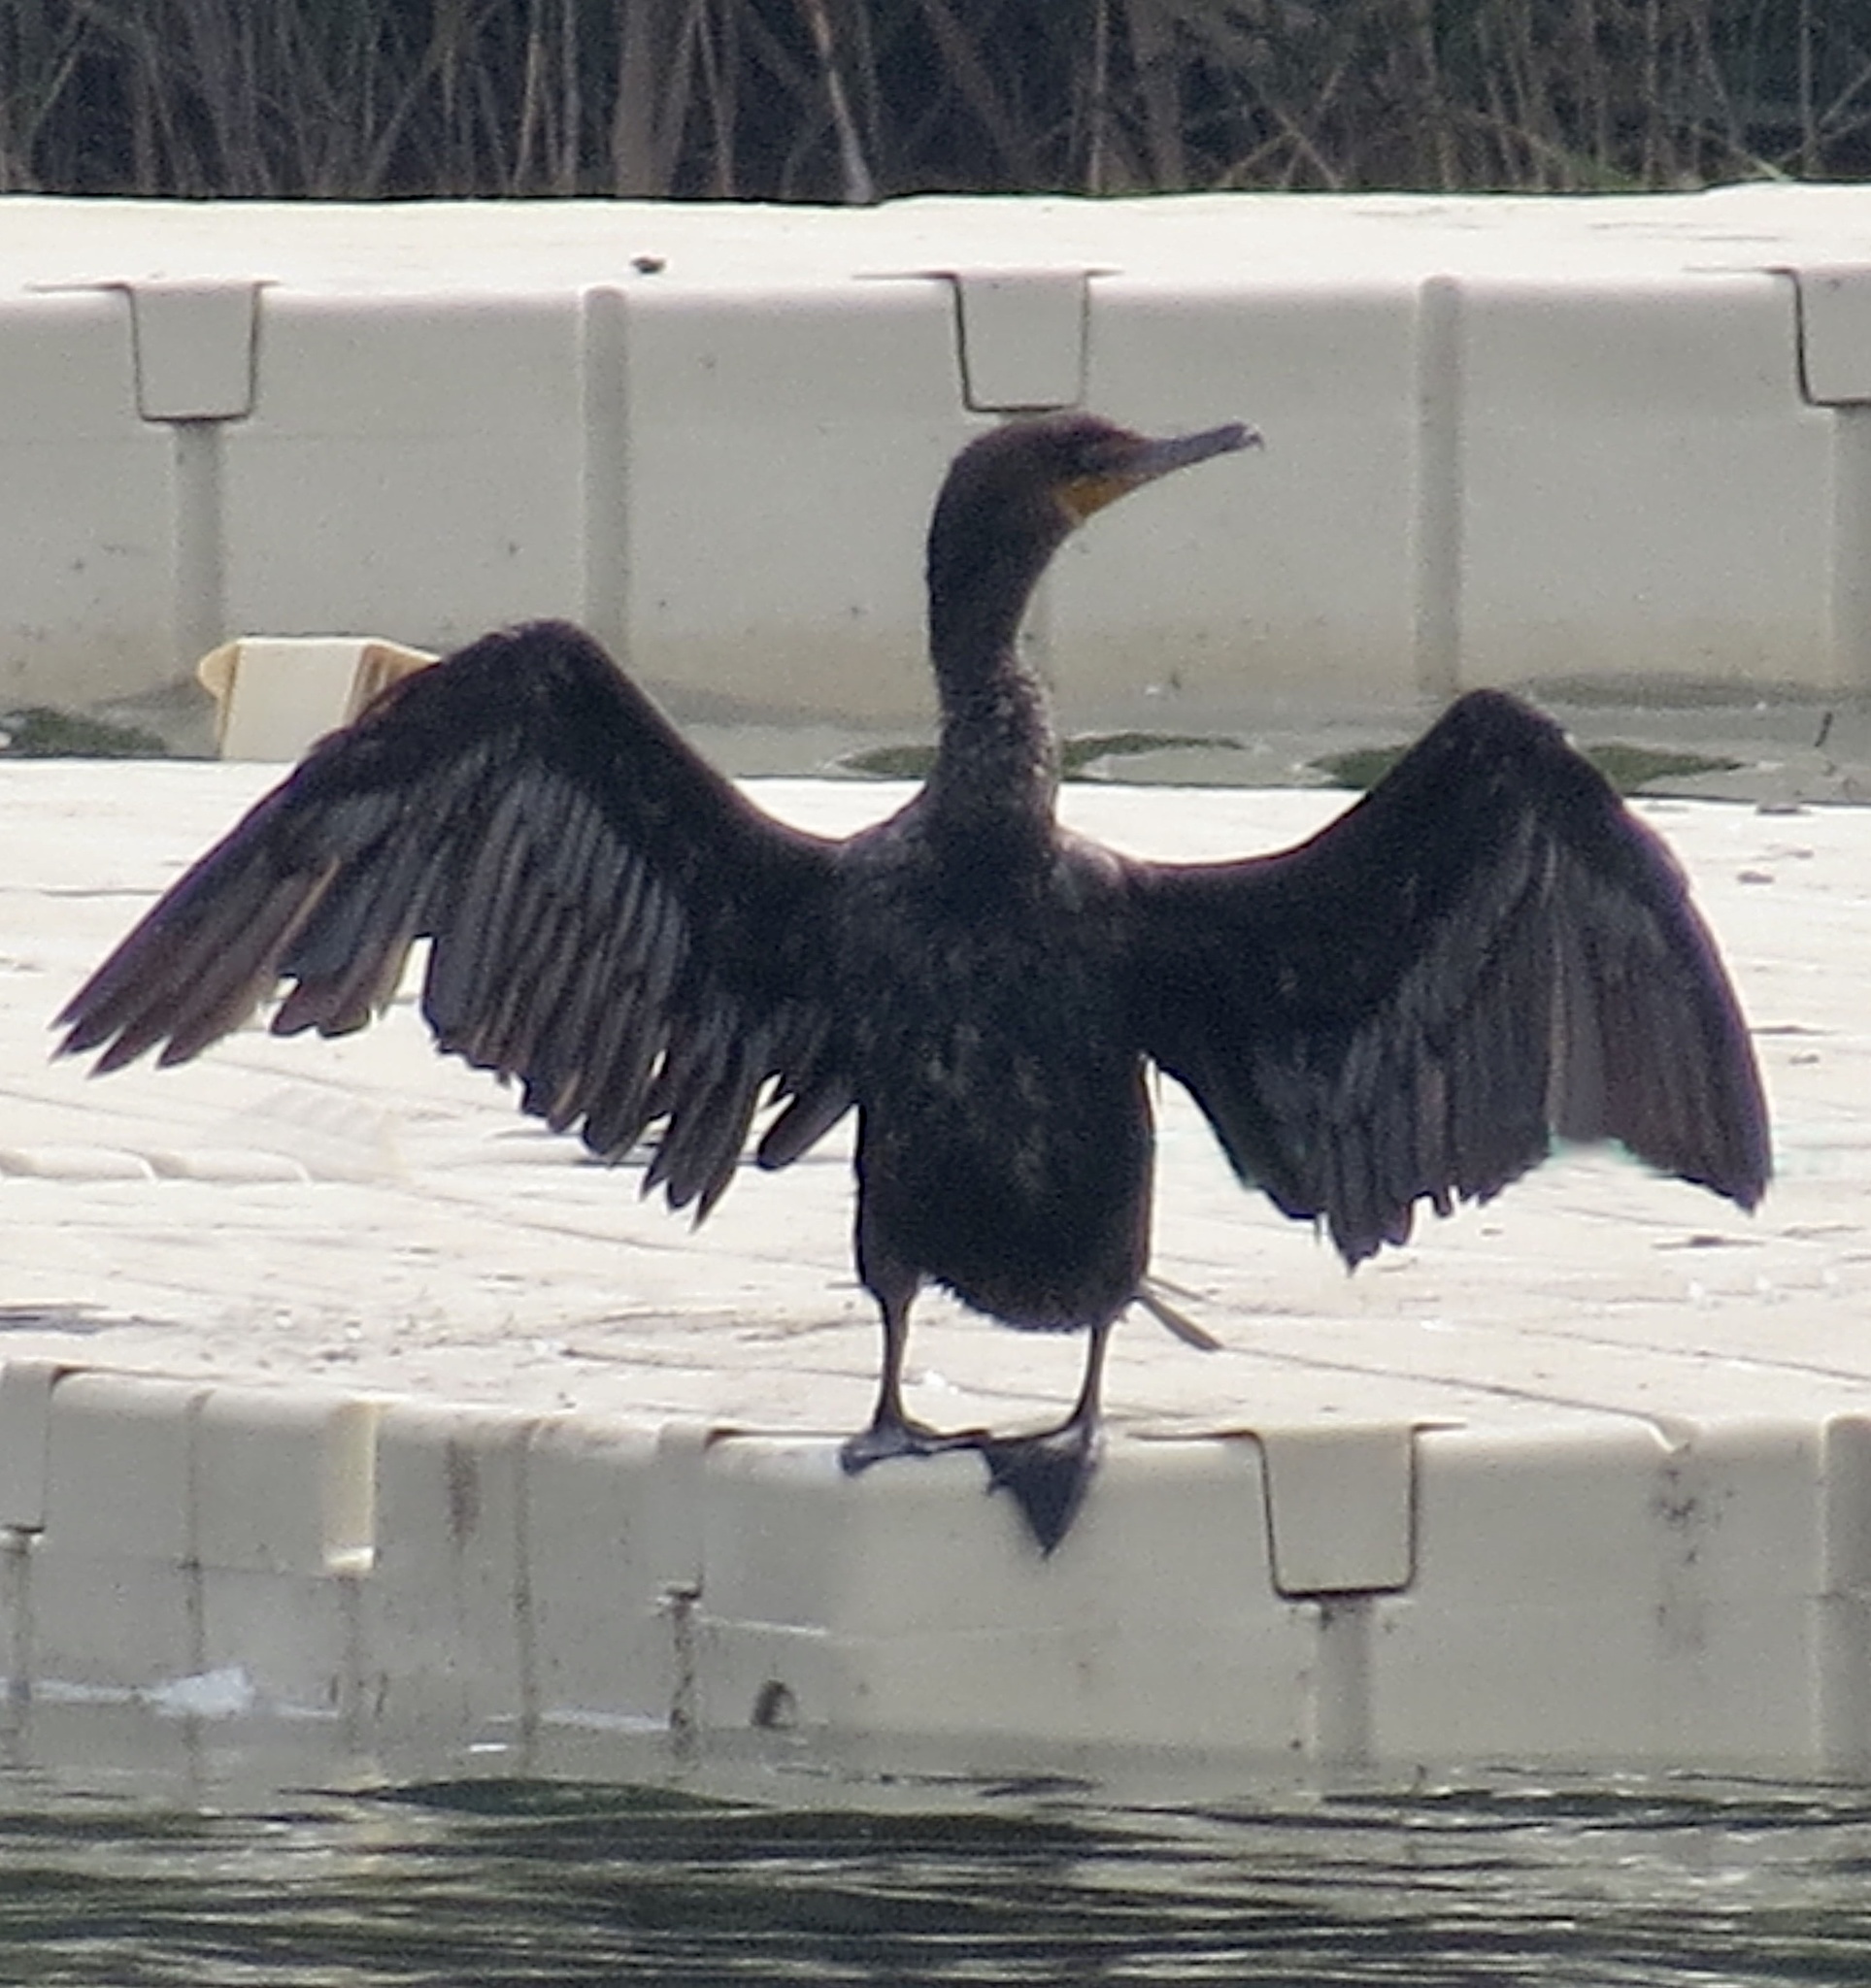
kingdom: Animalia
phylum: Chordata
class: Aves
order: Suliformes
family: Phalacrocoracidae
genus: Phalacrocorax
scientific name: Phalacrocorax auritus
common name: Double-crested cormorant
